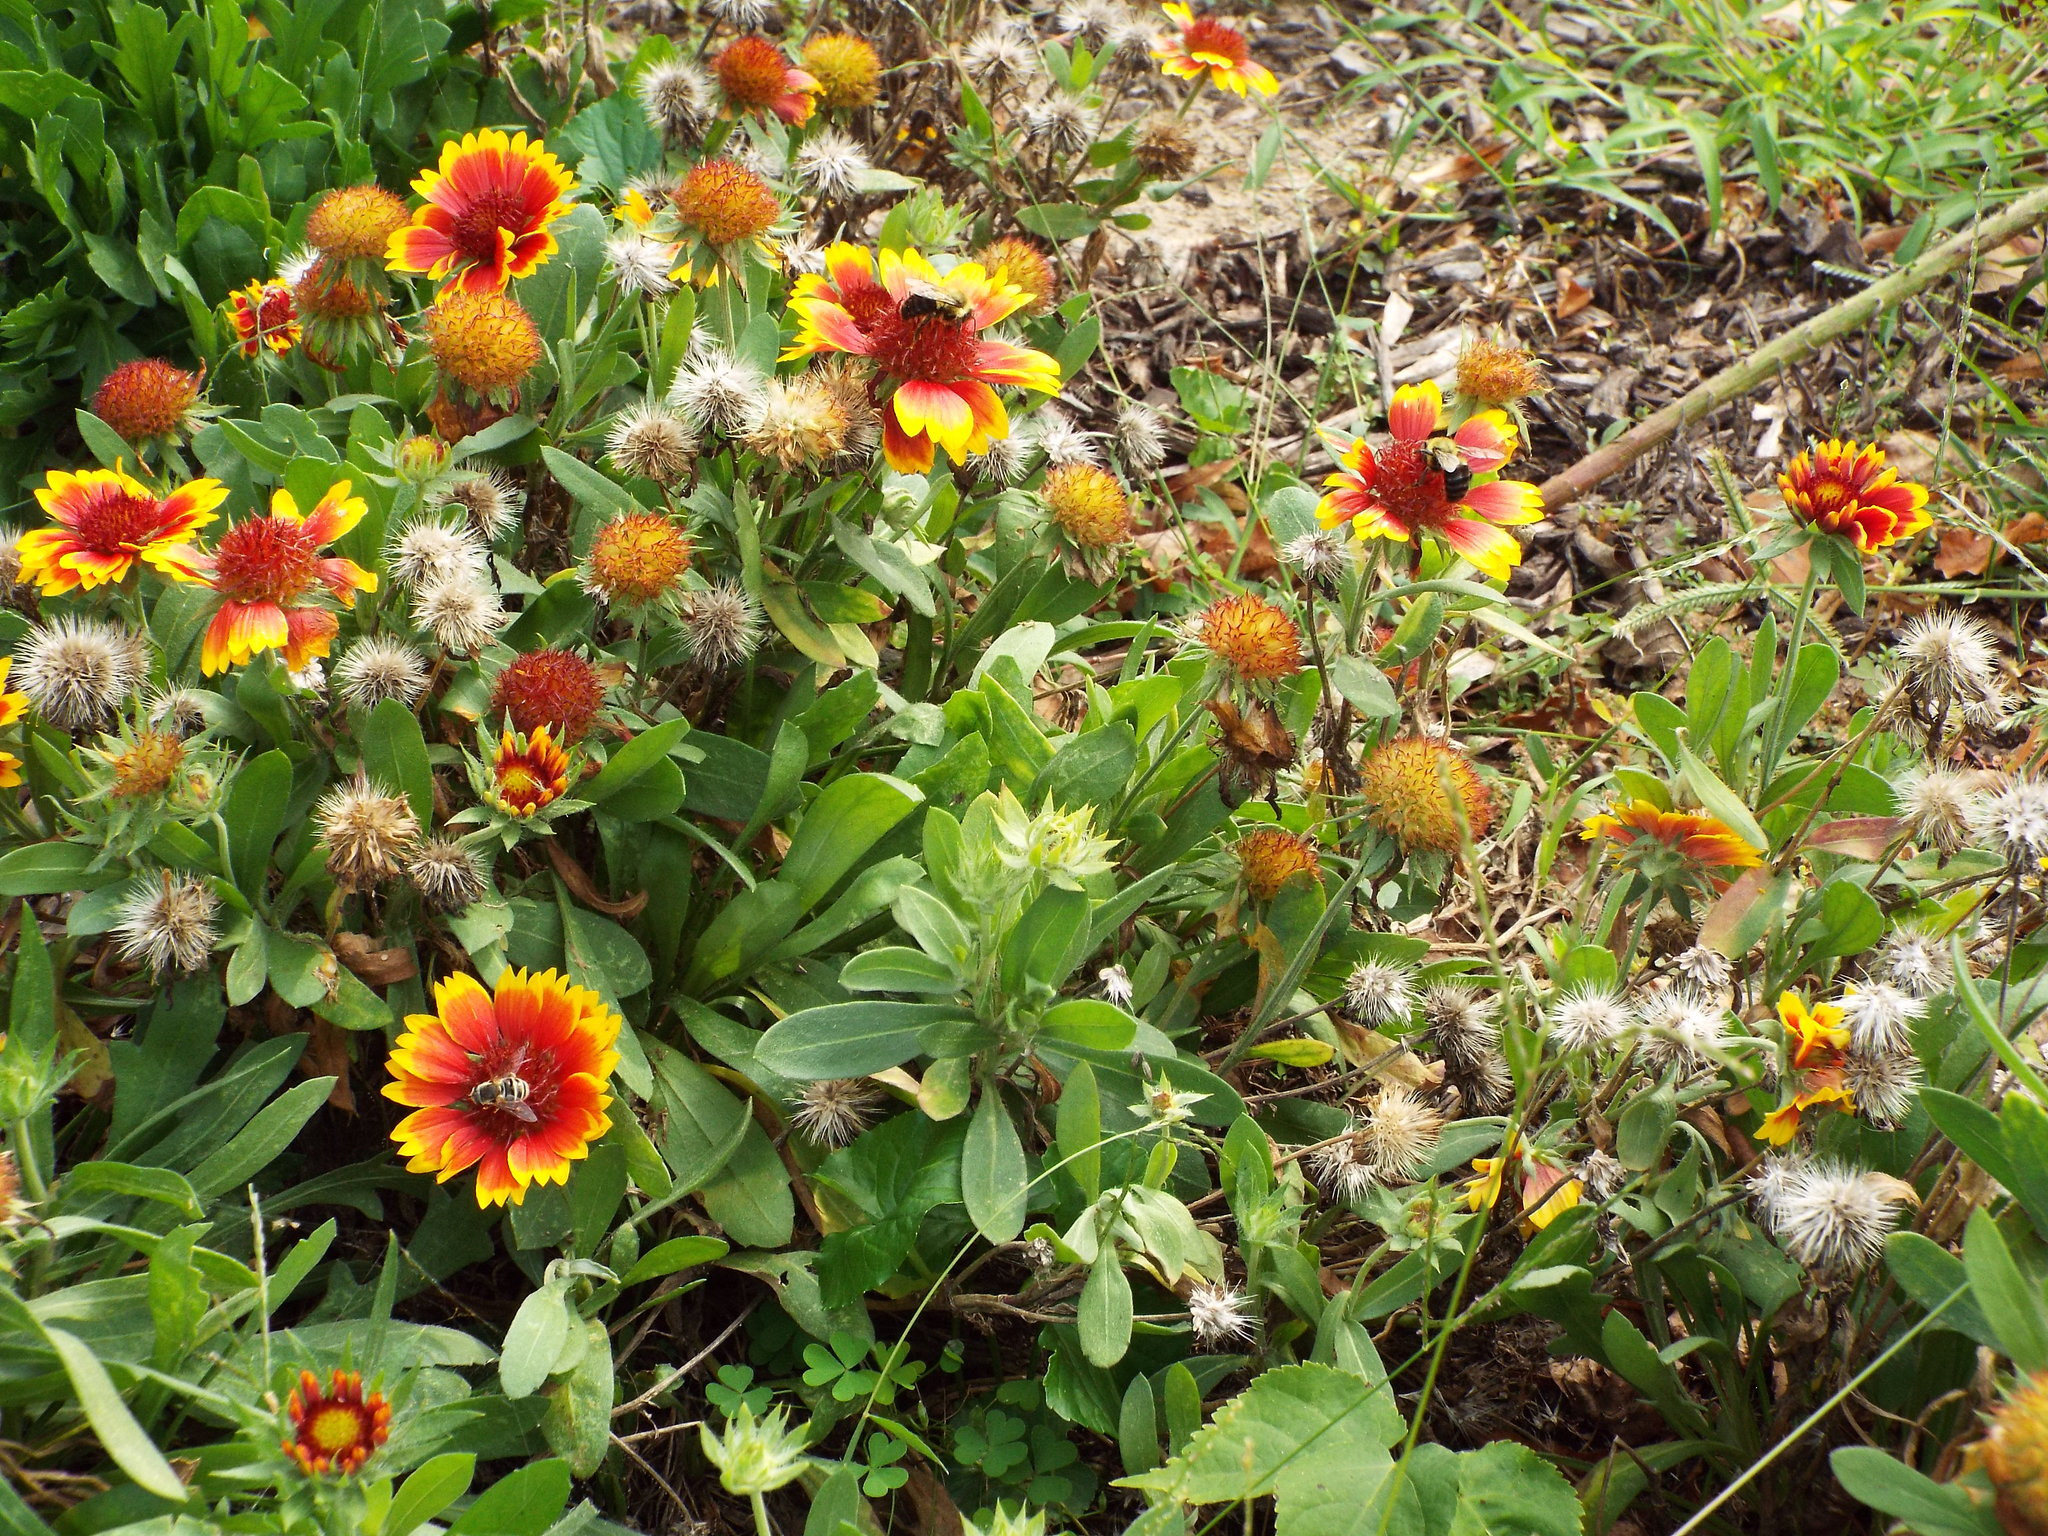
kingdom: Animalia
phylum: Arthropoda
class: Insecta
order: Hymenoptera
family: Apidae
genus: Bombus
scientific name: Bombus impatiens
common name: Common eastern bumble bee
